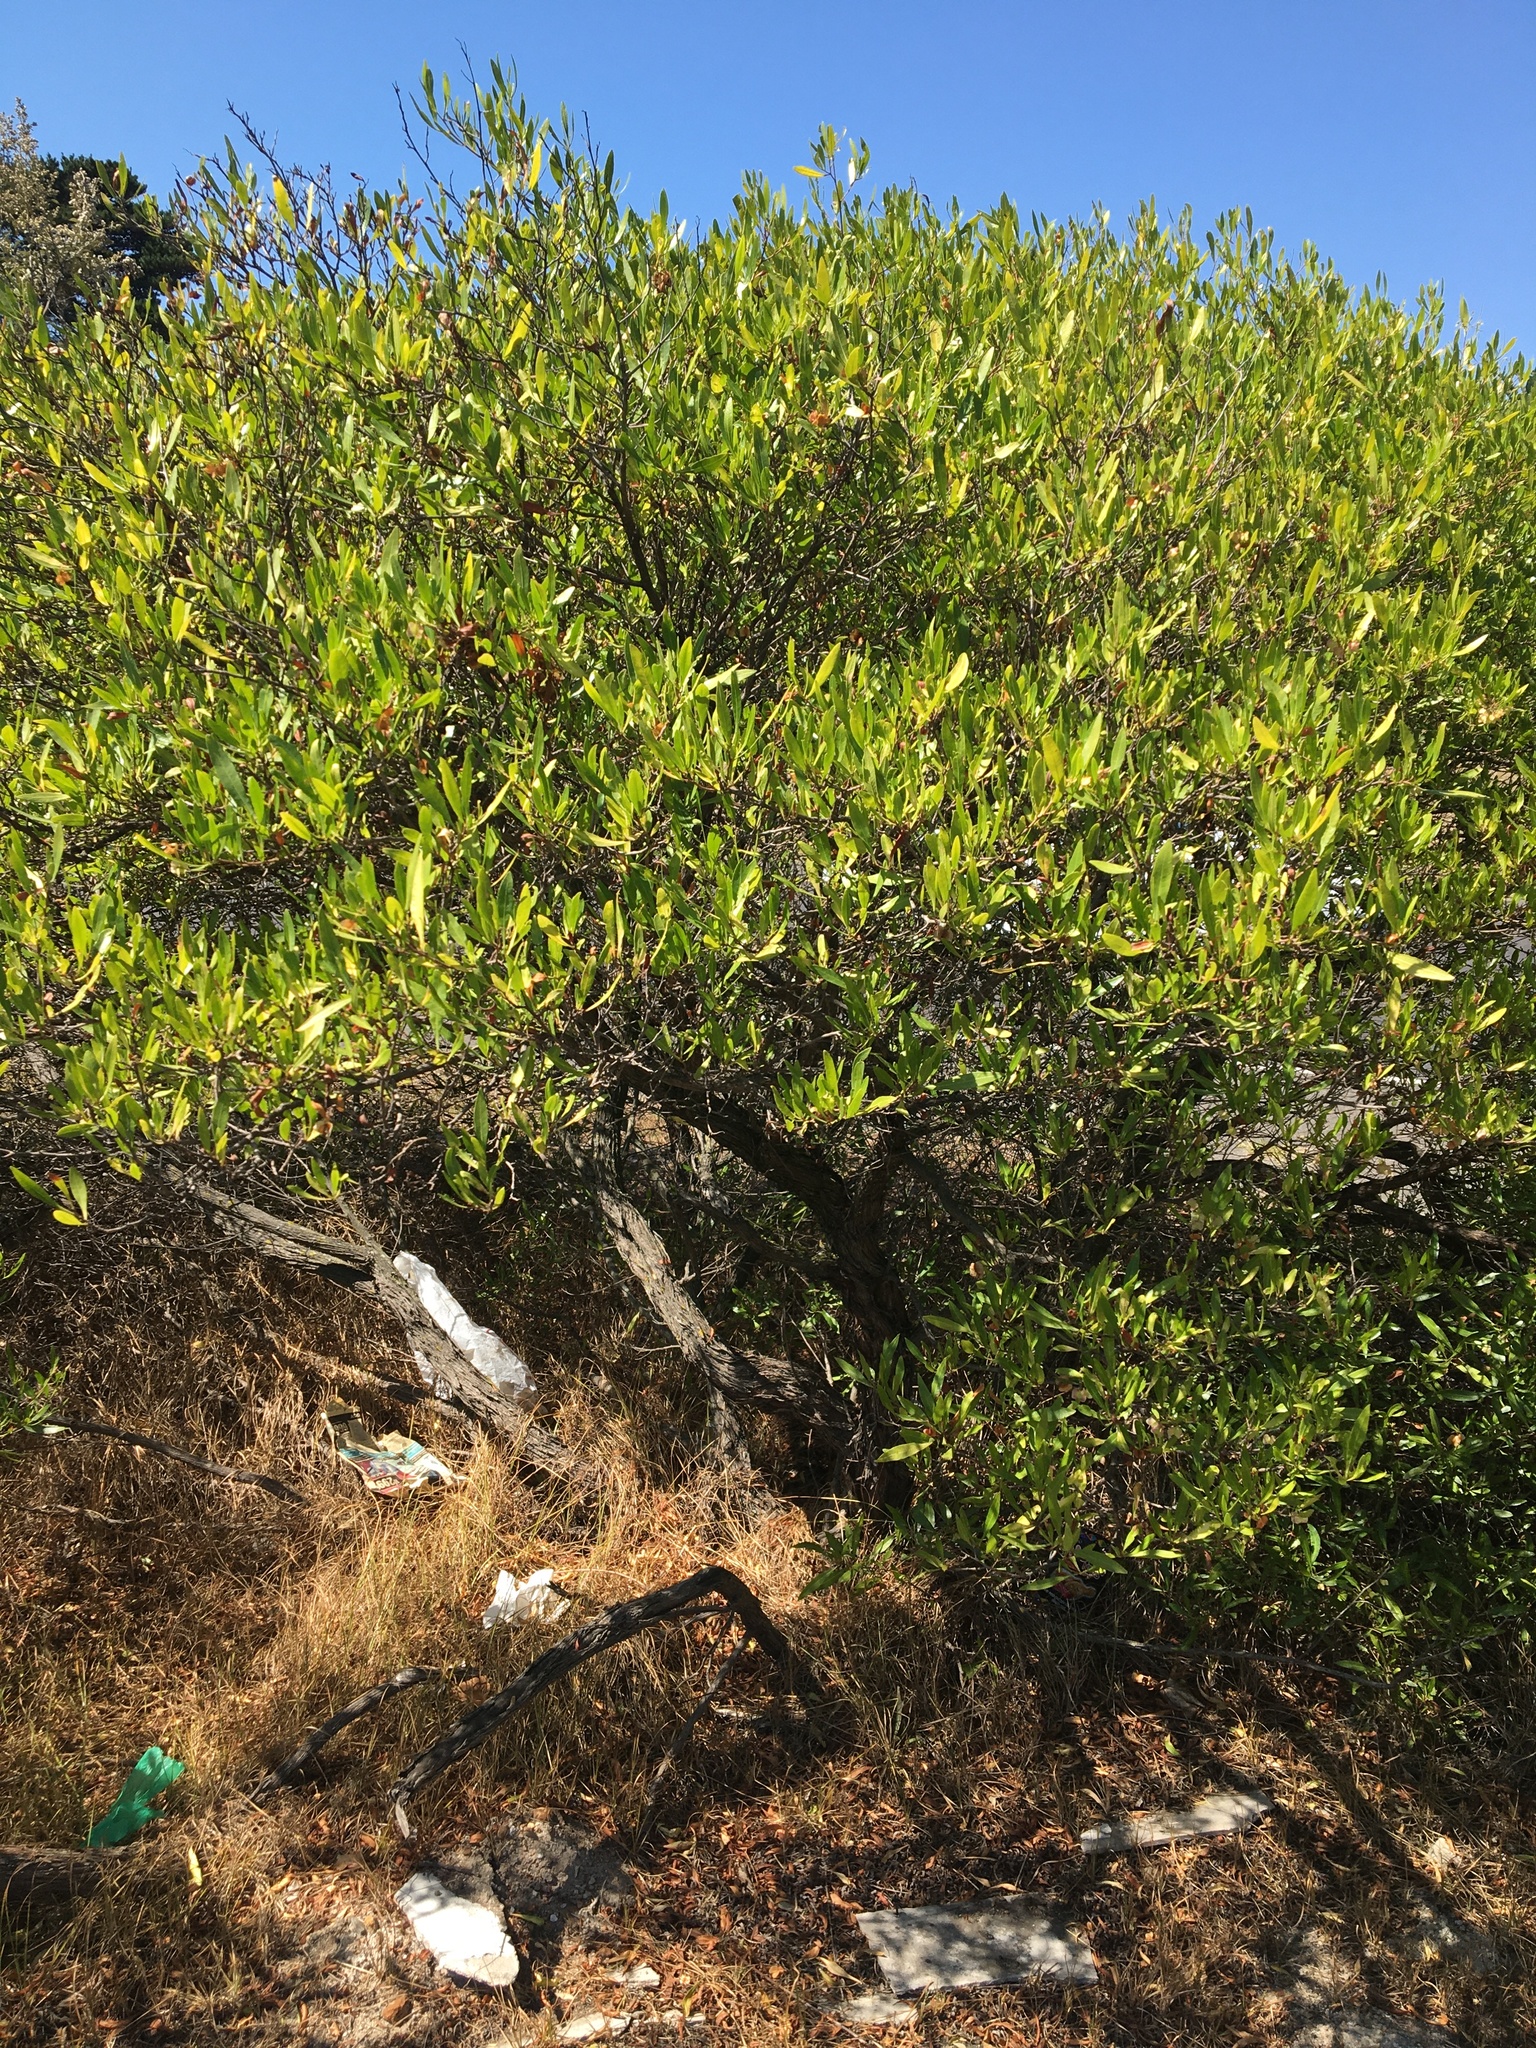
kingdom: Plantae
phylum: Tracheophyta
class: Magnoliopsida
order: Sapindales
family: Sapindaceae
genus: Dodonaea
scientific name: Dodonaea viscosa
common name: Hopbush
